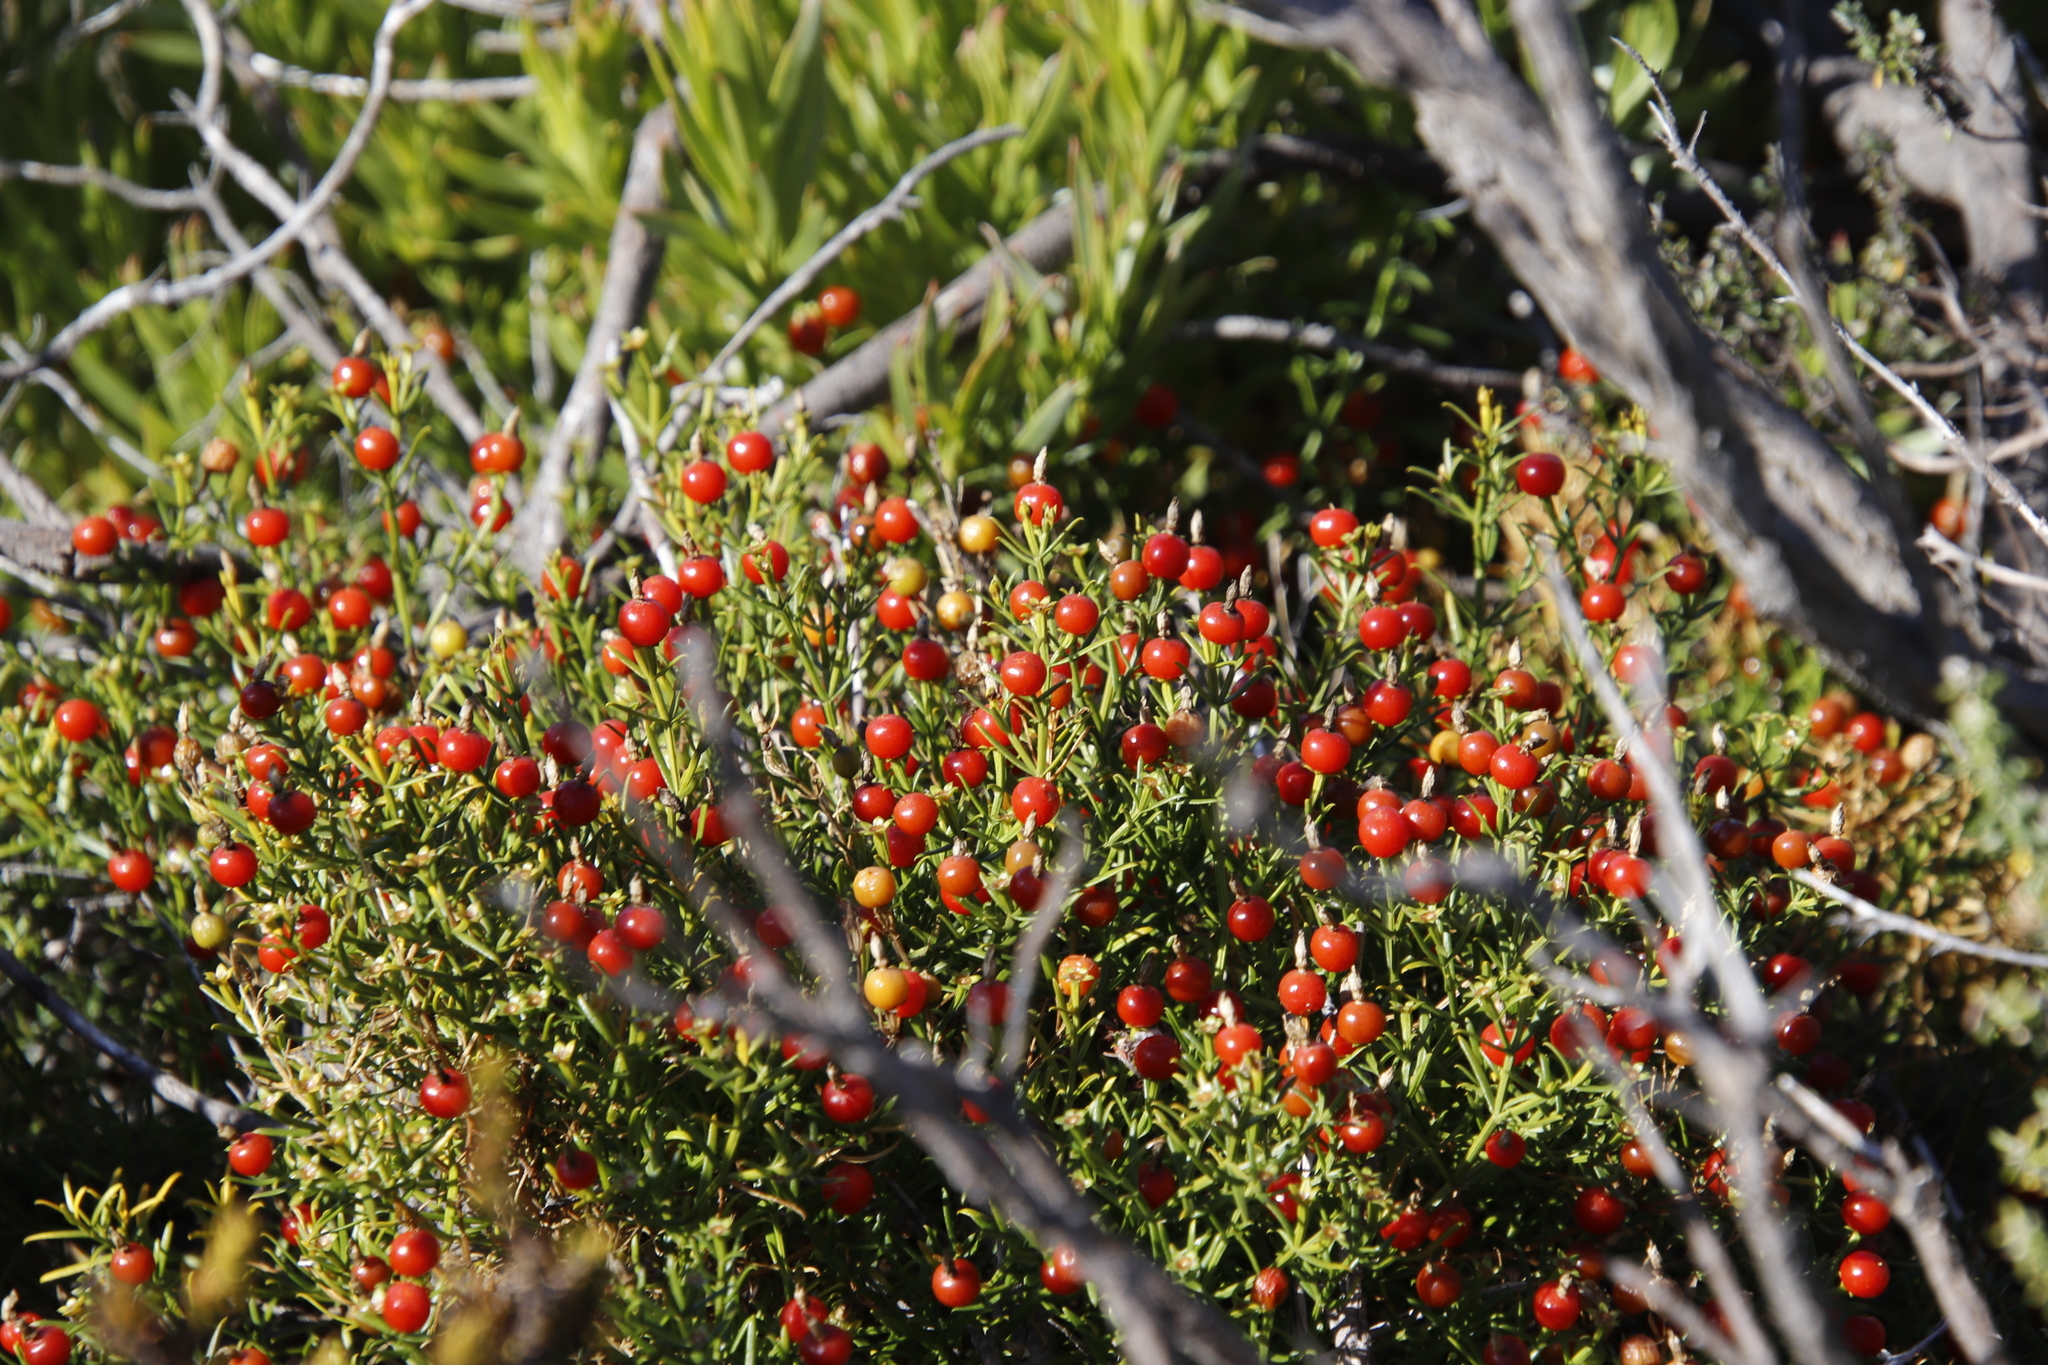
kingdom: Plantae
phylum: Tracheophyta
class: Magnoliopsida
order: Gentianales
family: Gentianaceae
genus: Chironia
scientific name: Chironia baccifera
